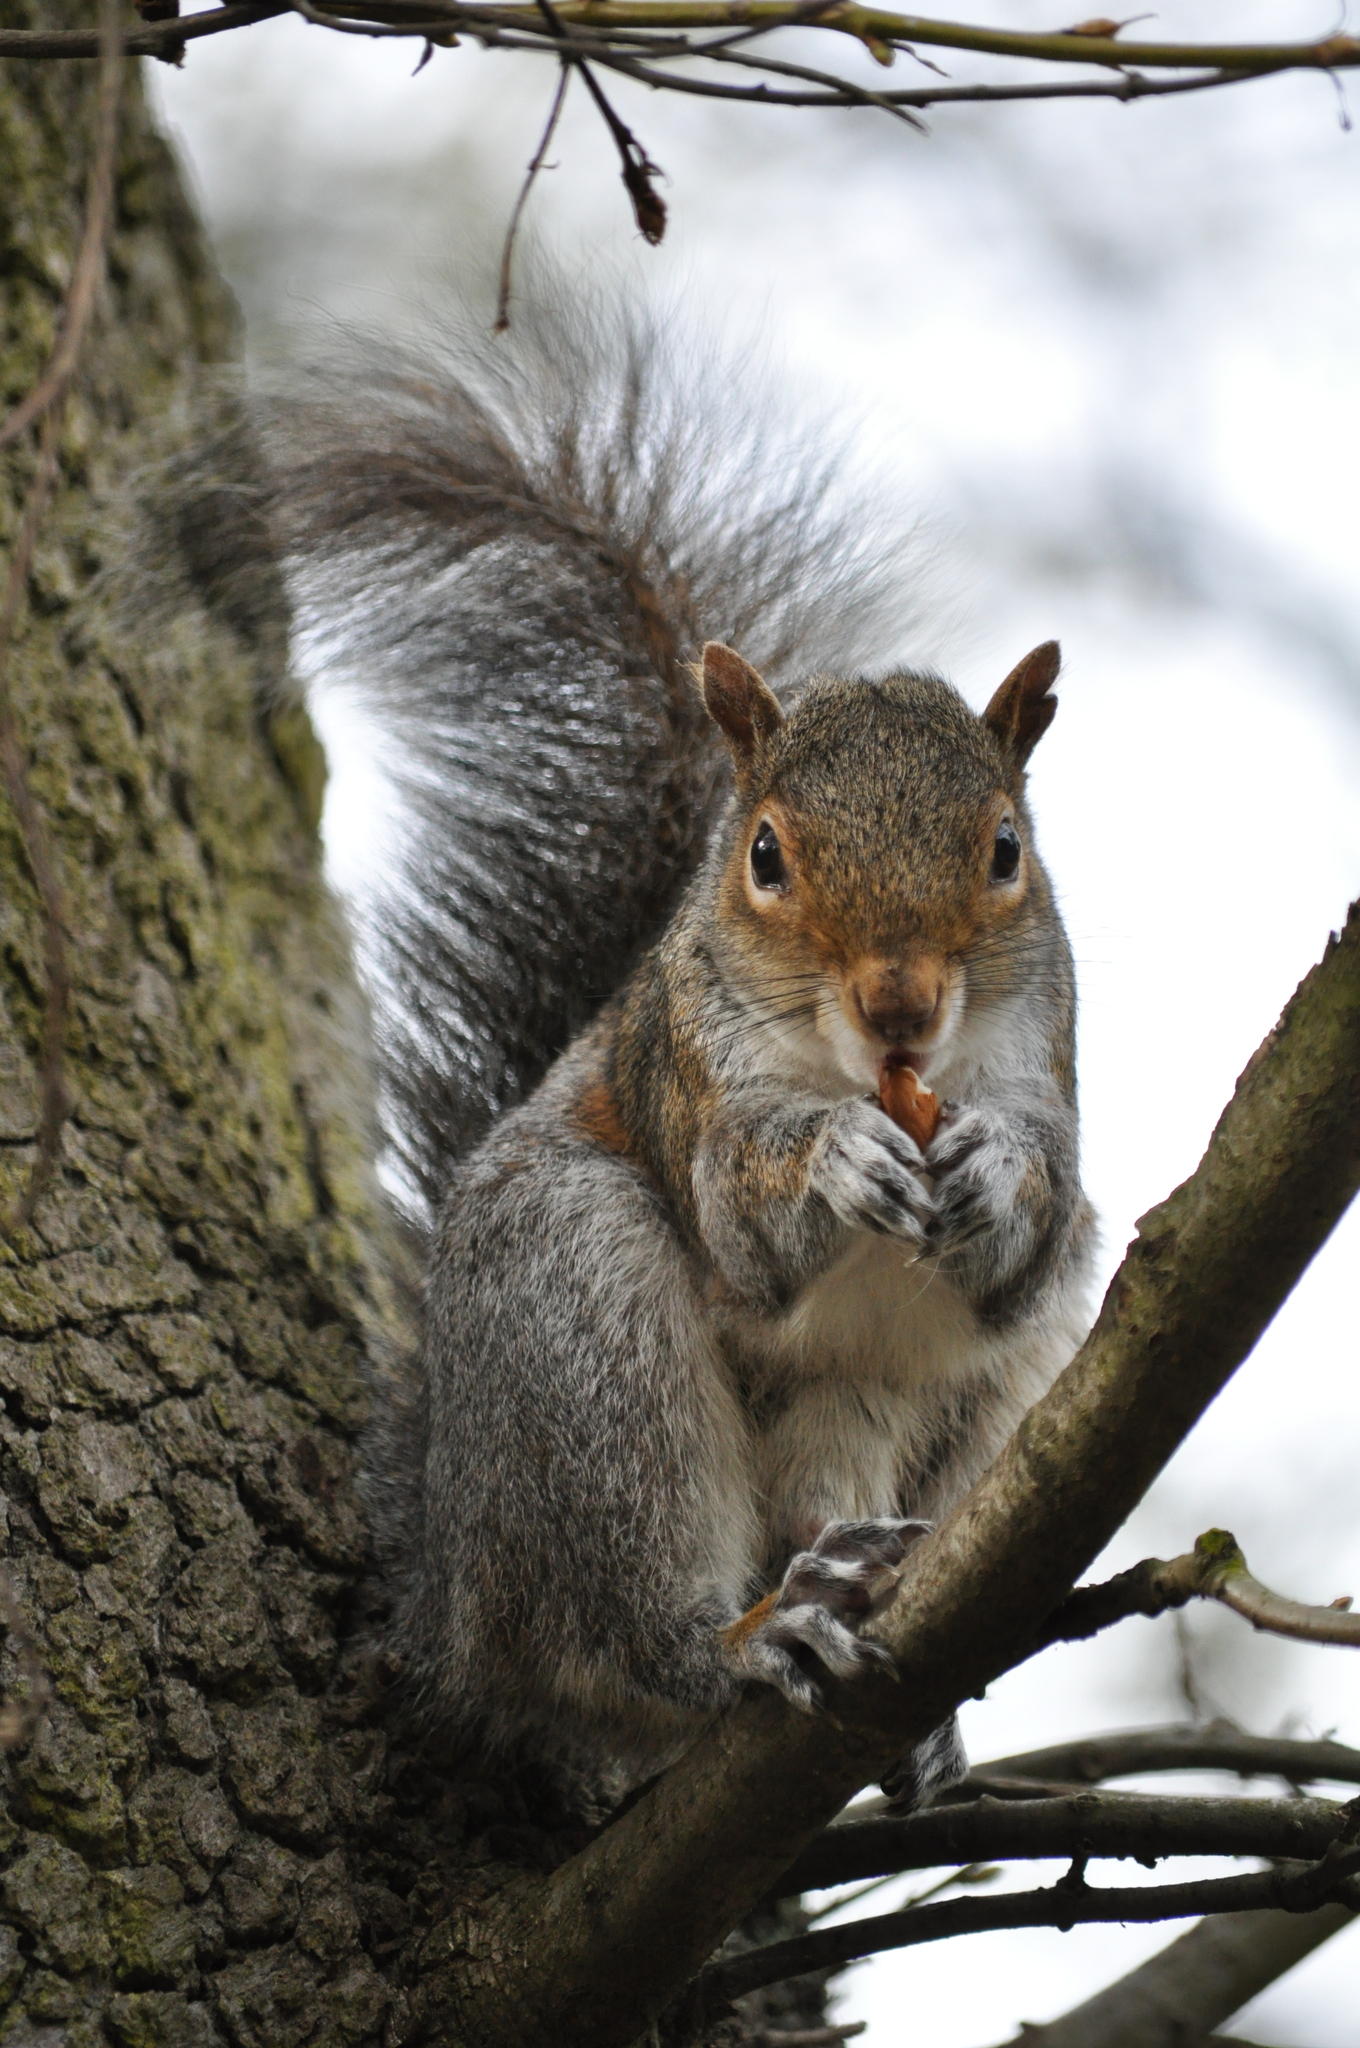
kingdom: Animalia
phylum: Chordata
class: Mammalia
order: Rodentia
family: Sciuridae
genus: Sciurus
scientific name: Sciurus carolinensis
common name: Eastern gray squirrel
